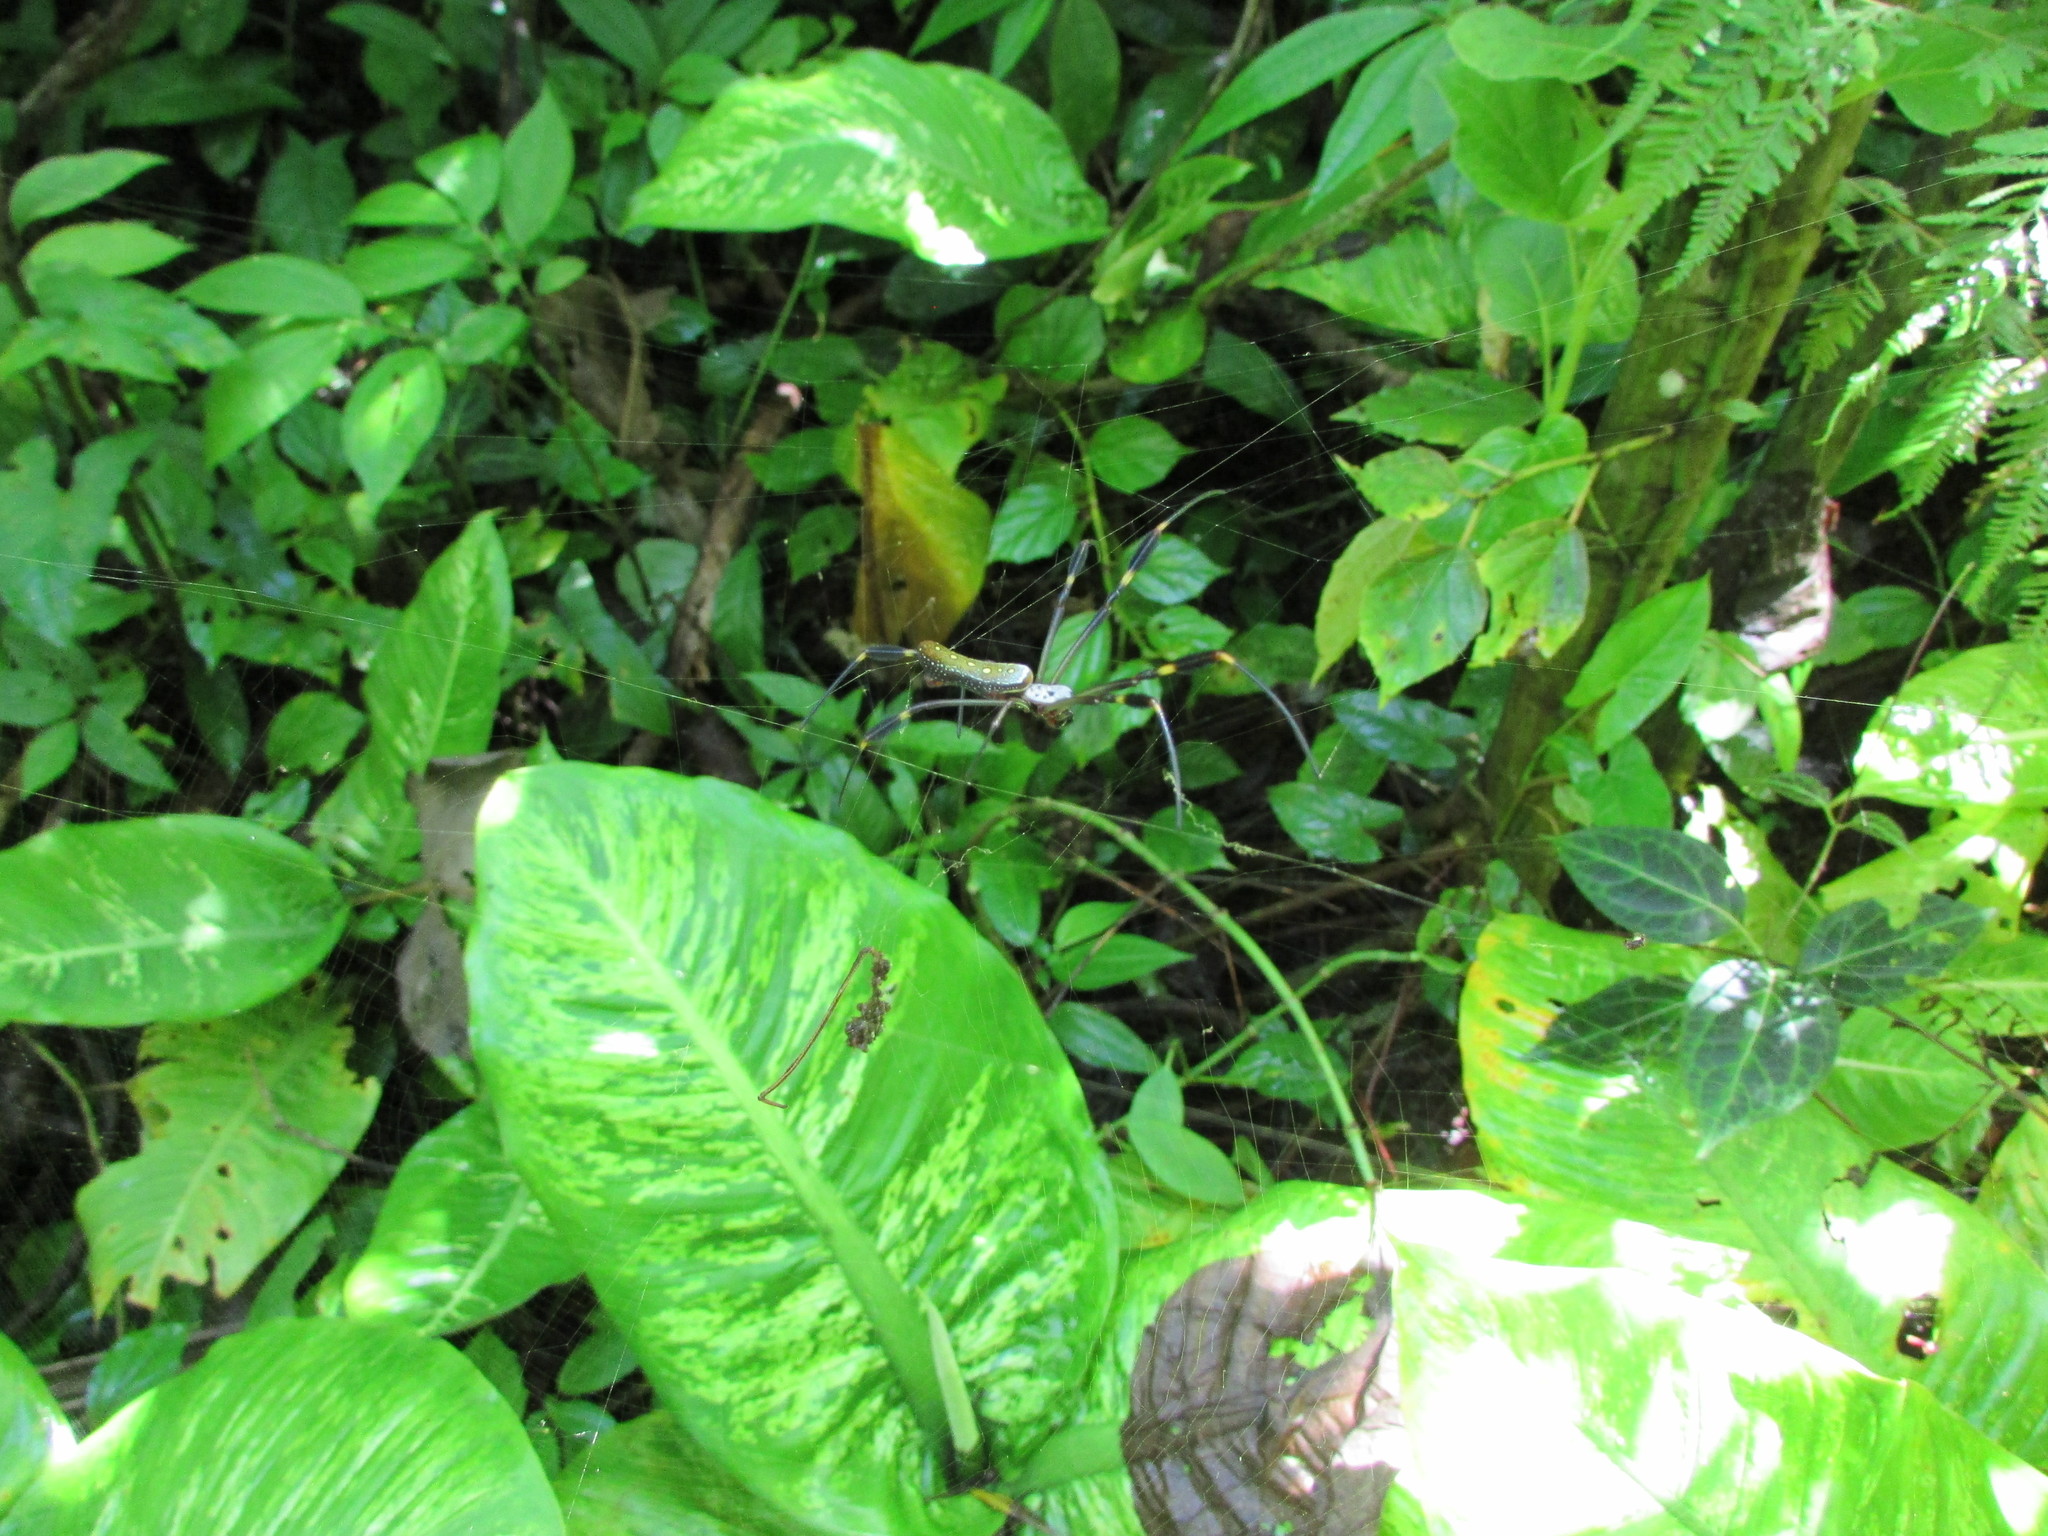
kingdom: Animalia
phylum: Arthropoda
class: Arachnida
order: Araneae
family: Araneidae
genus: Trichonephila
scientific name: Trichonephila clavipes
